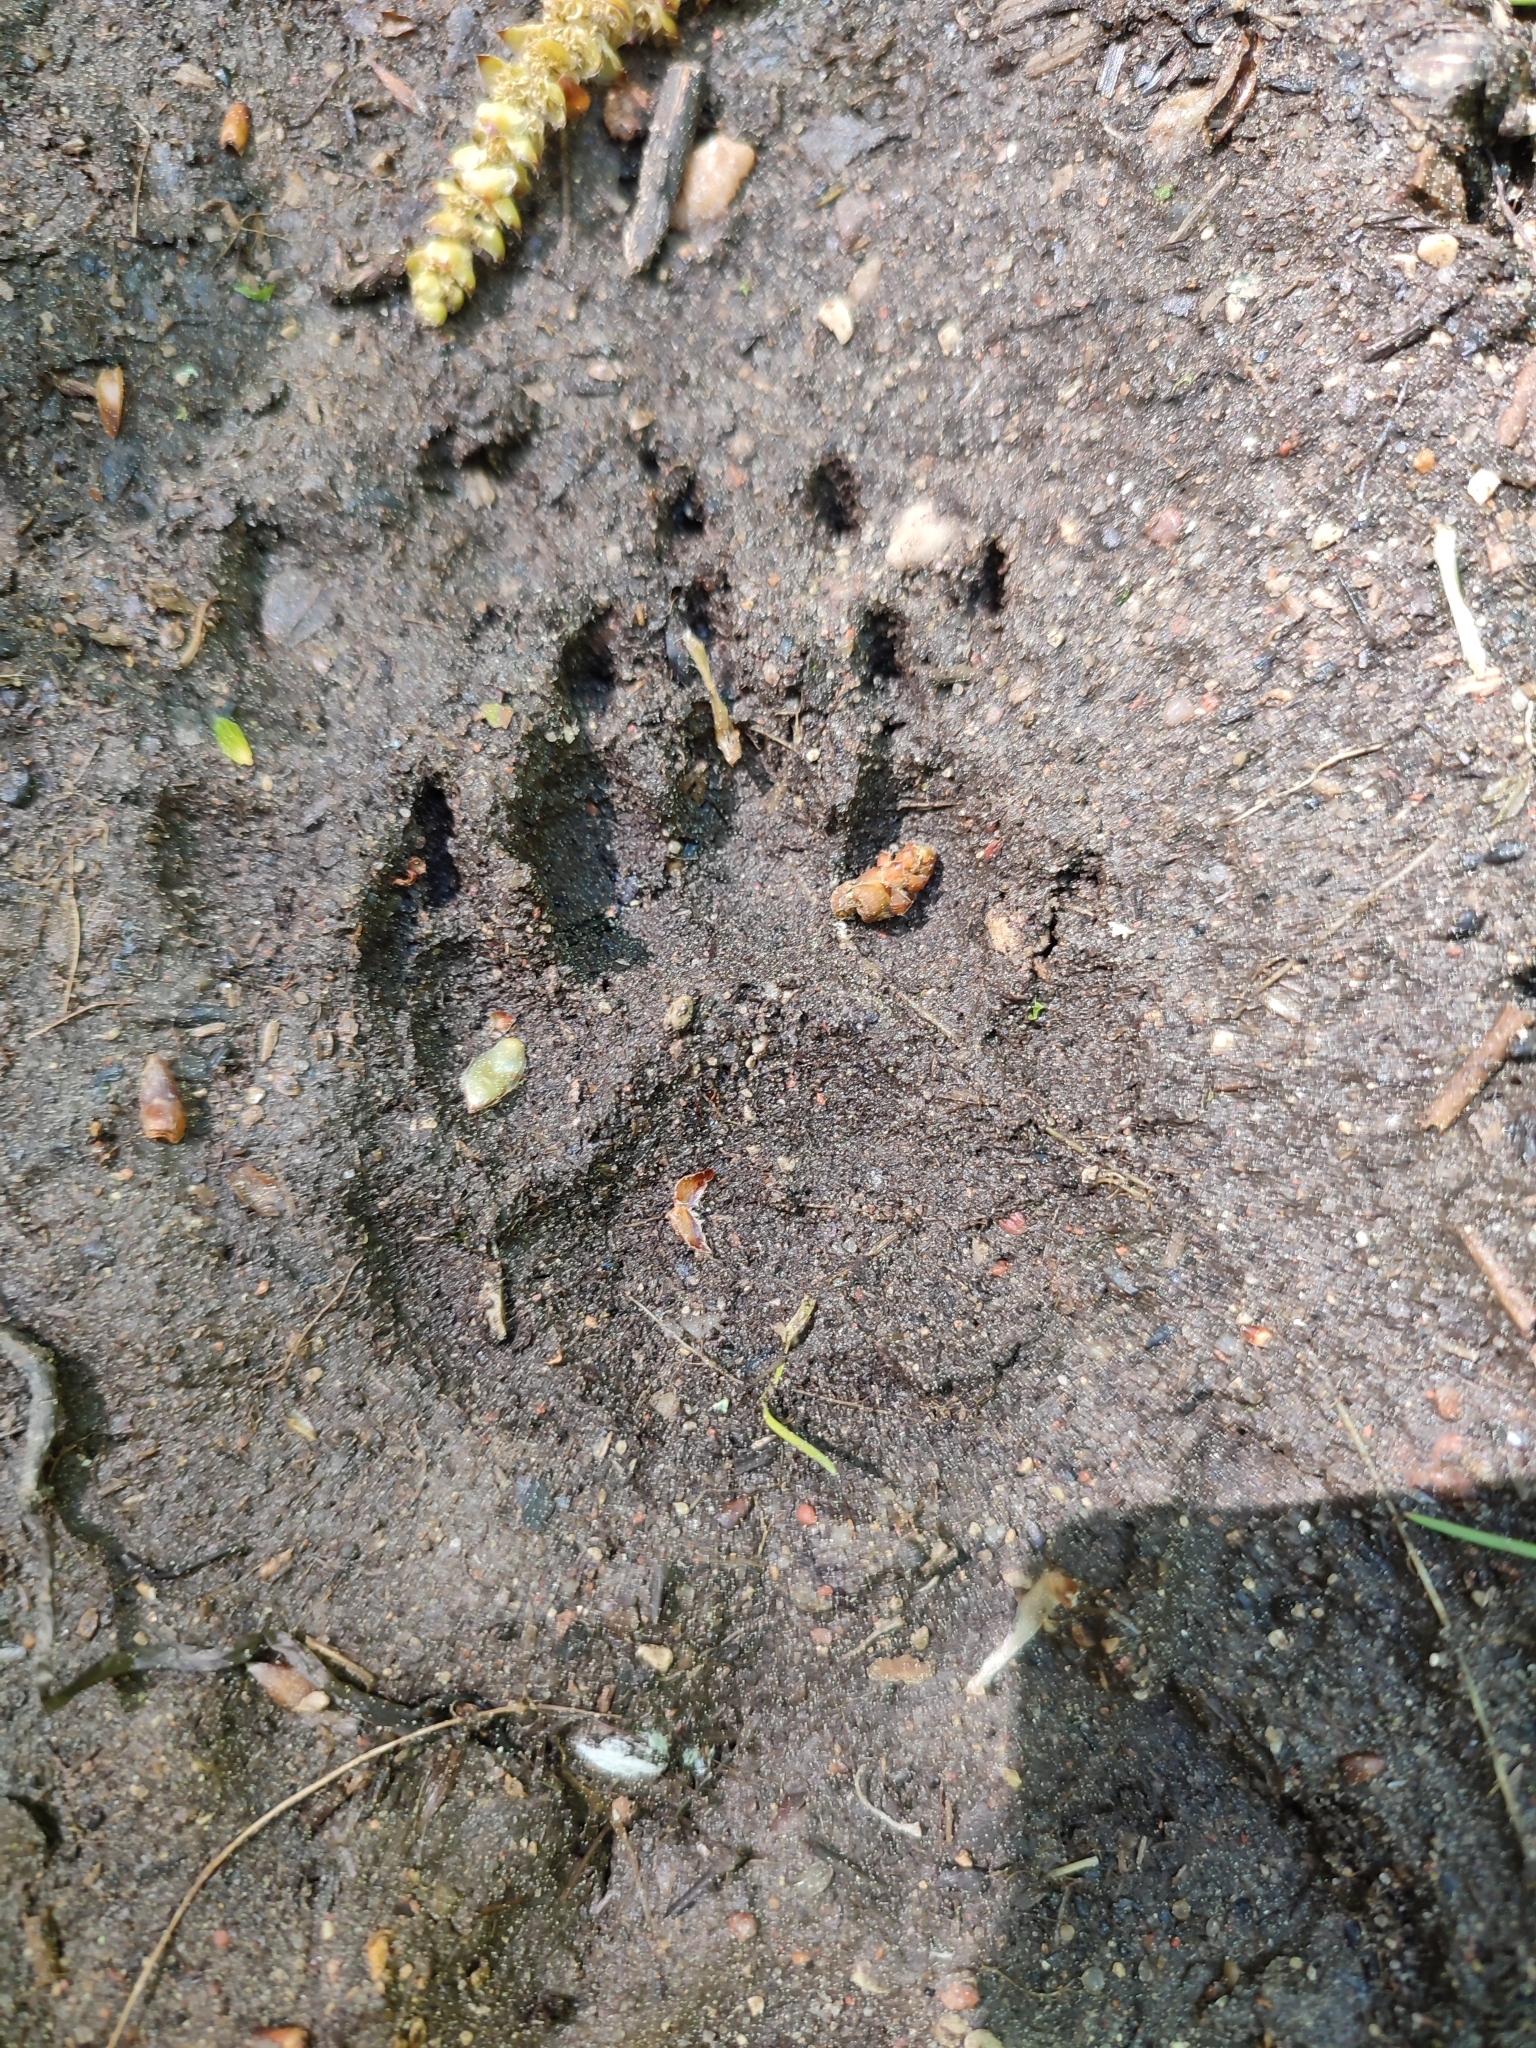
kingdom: Animalia
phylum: Chordata
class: Mammalia
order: Carnivora
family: Mustelidae
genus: Meles
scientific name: Meles meles
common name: Eurasian badger
